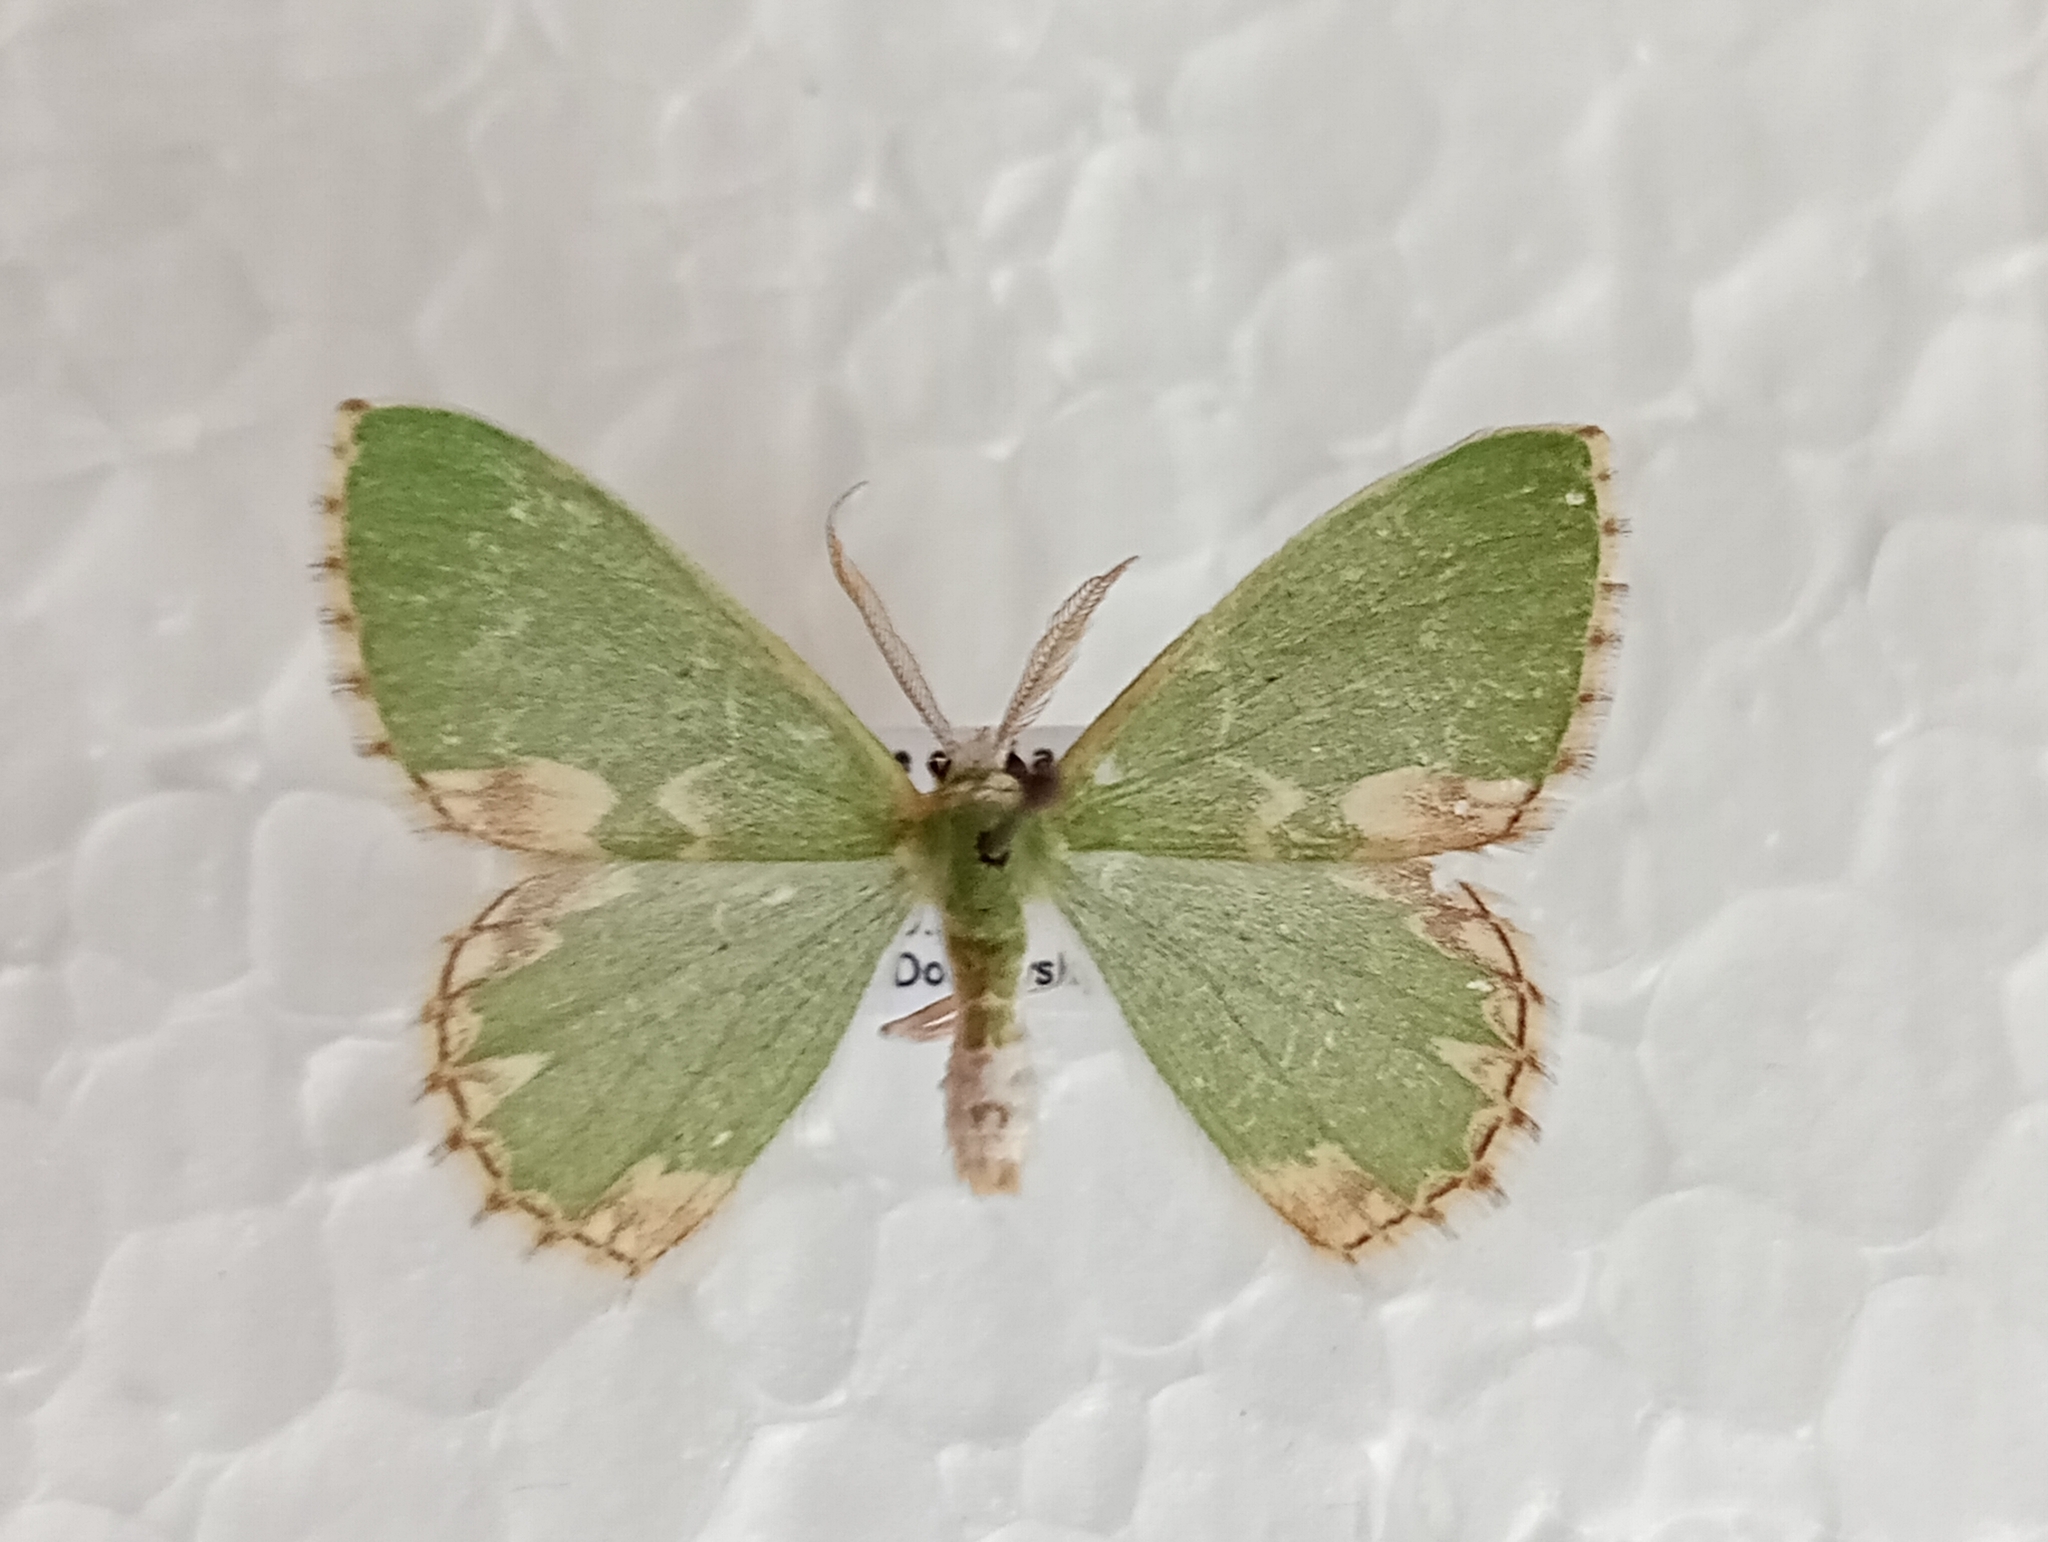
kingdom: Animalia
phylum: Arthropoda
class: Insecta
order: Lepidoptera
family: Geometridae
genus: Comibaena
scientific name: Comibaena bajularia
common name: Blotched emerald
